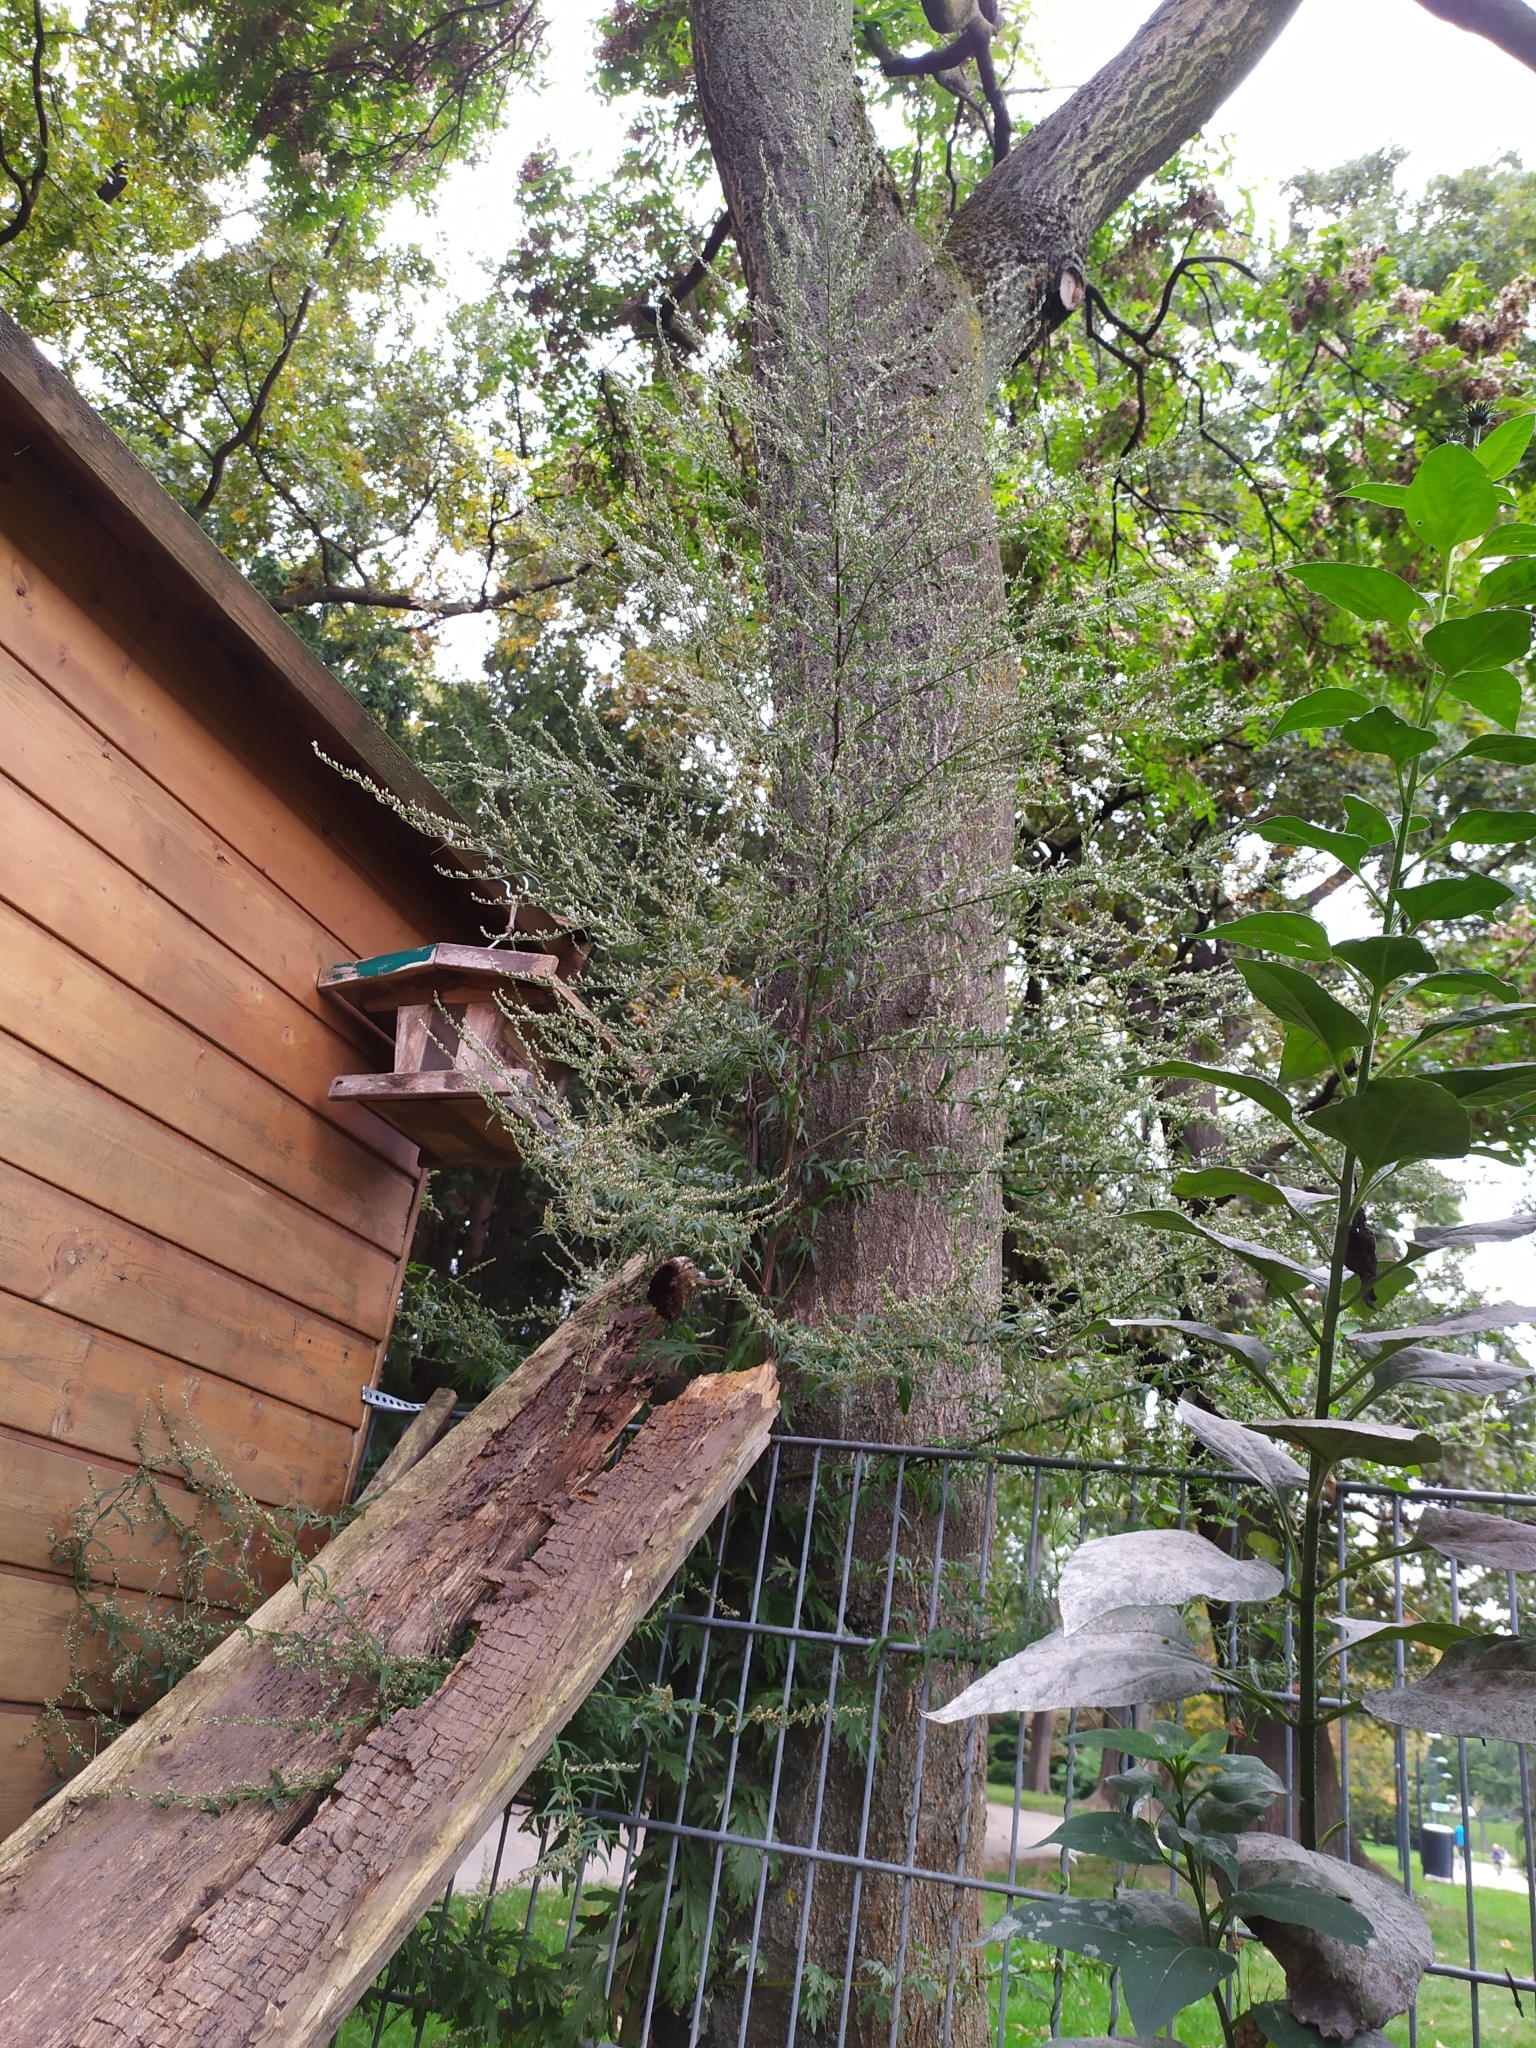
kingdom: Plantae
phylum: Tracheophyta
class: Magnoliopsida
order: Asterales
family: Asteraceae
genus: Artemisia
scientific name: Artemisia vulgaris
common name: Mugwort
